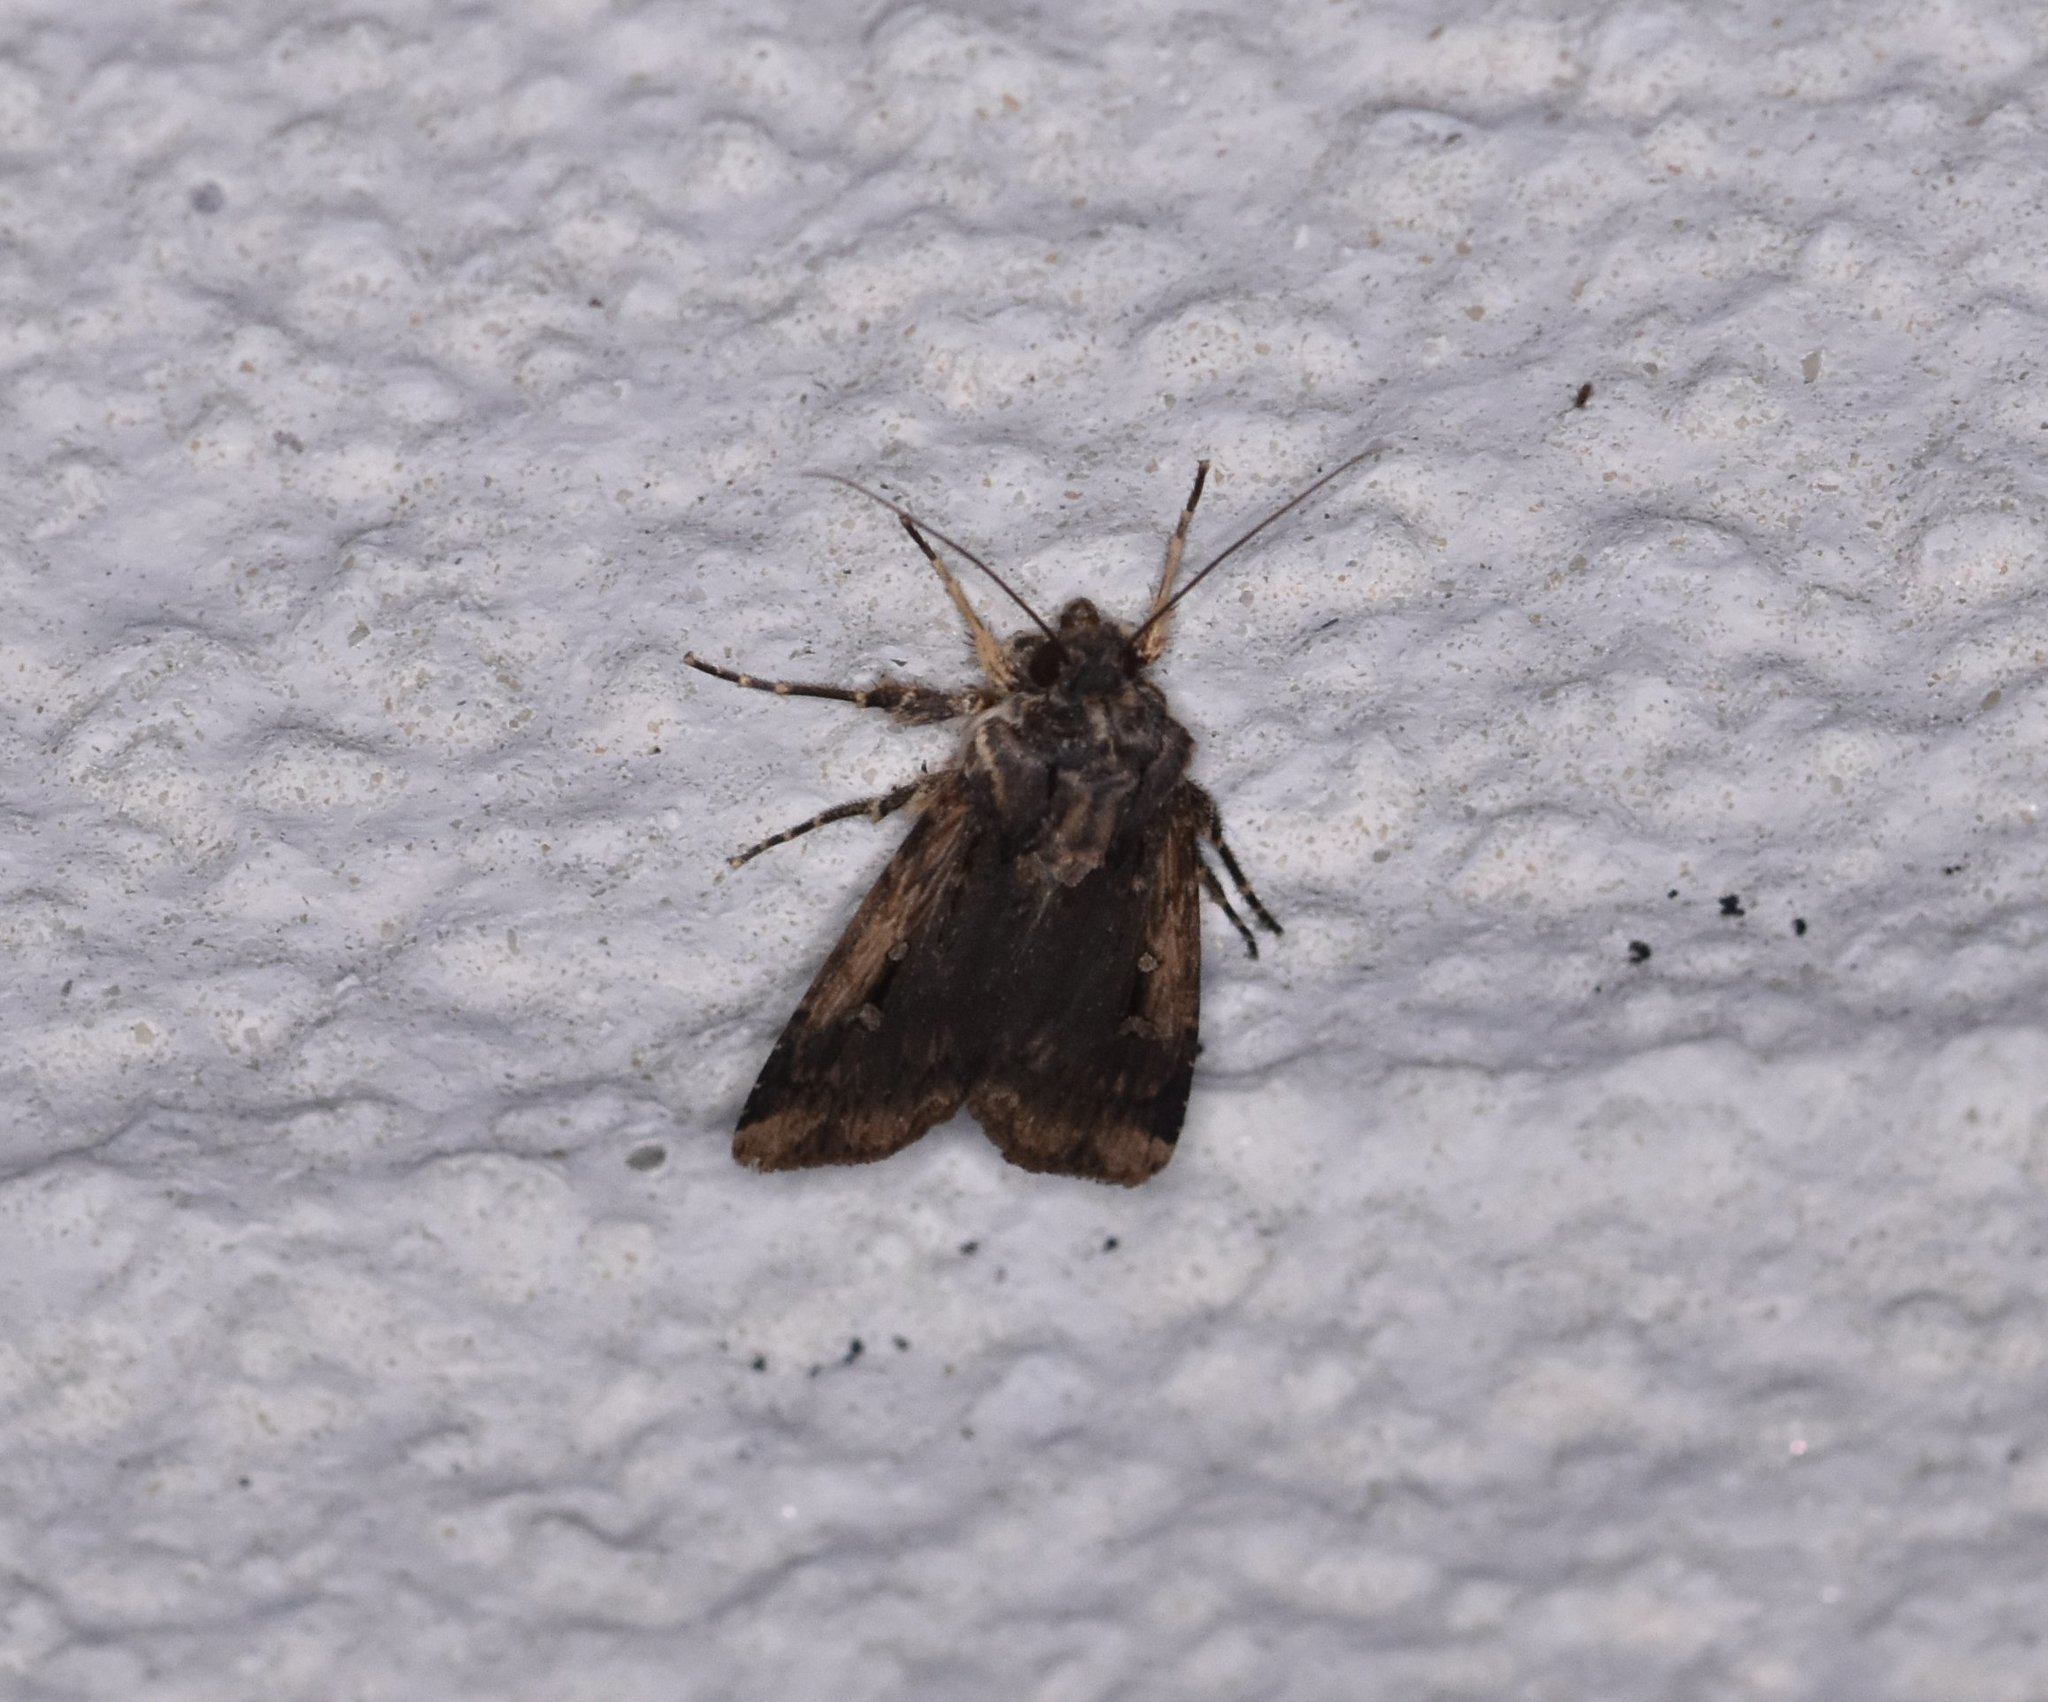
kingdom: Animalia
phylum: Arthropoda
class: Insecta
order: Lepidoptera
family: Noctuidae
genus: Feltia
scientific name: Feltia subterranea
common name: Granulate cutworm
